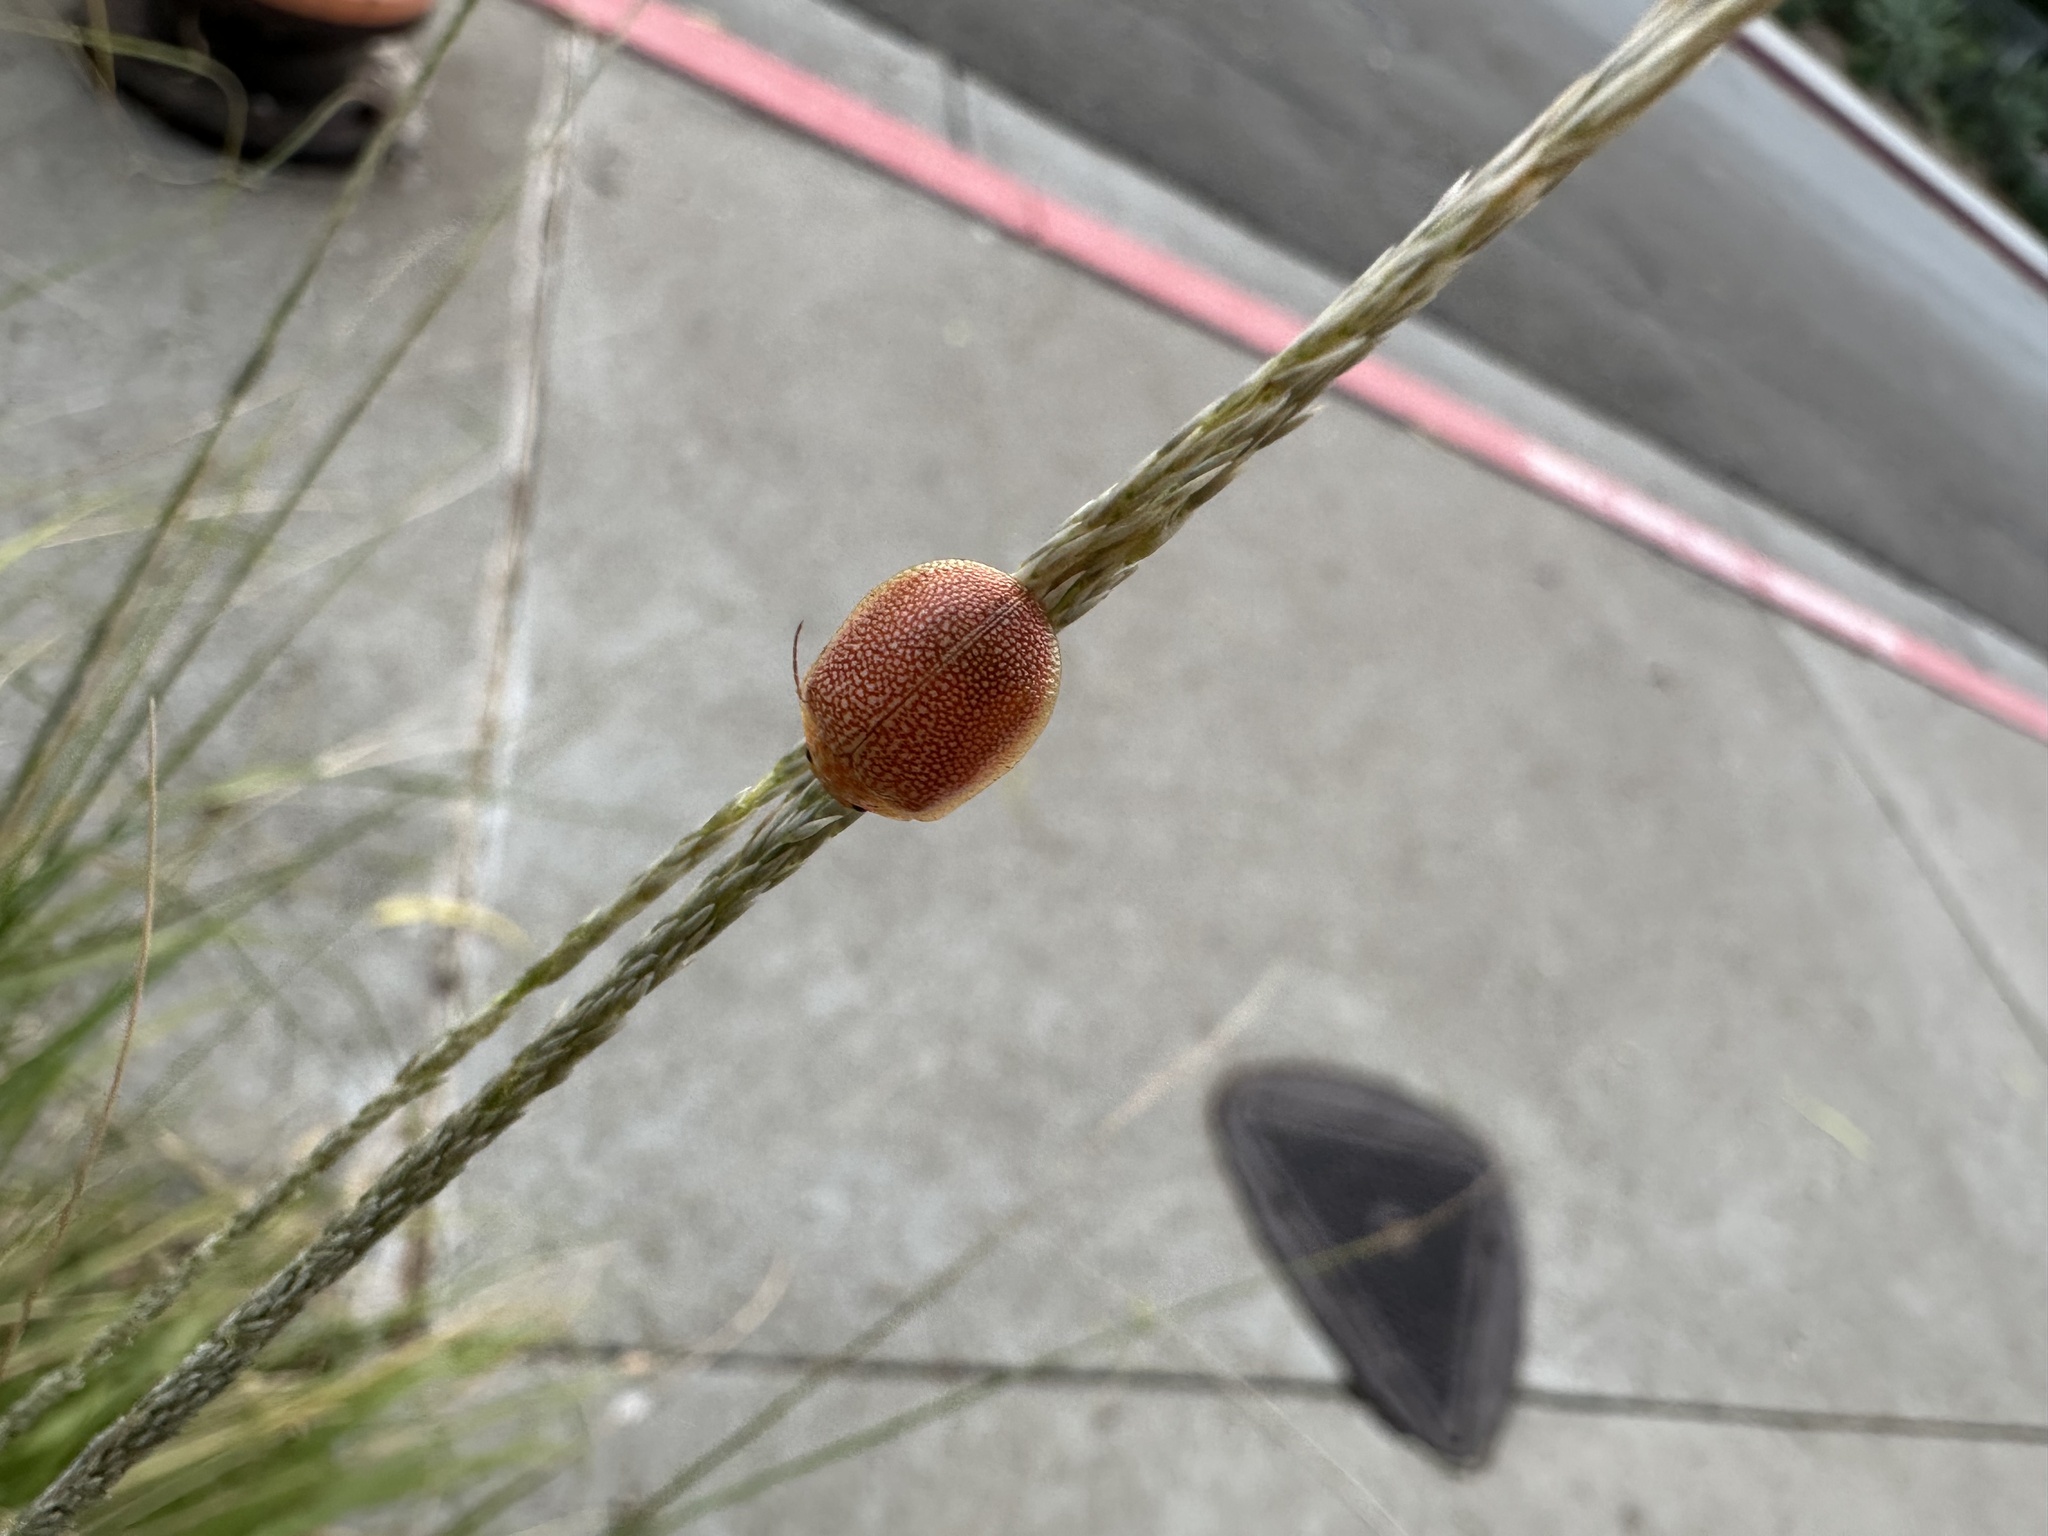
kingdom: Animalia
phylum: Arthropoda
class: Insecta
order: Coleoptera
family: Chrysomelidae
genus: Paropsis
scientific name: Paropsis
